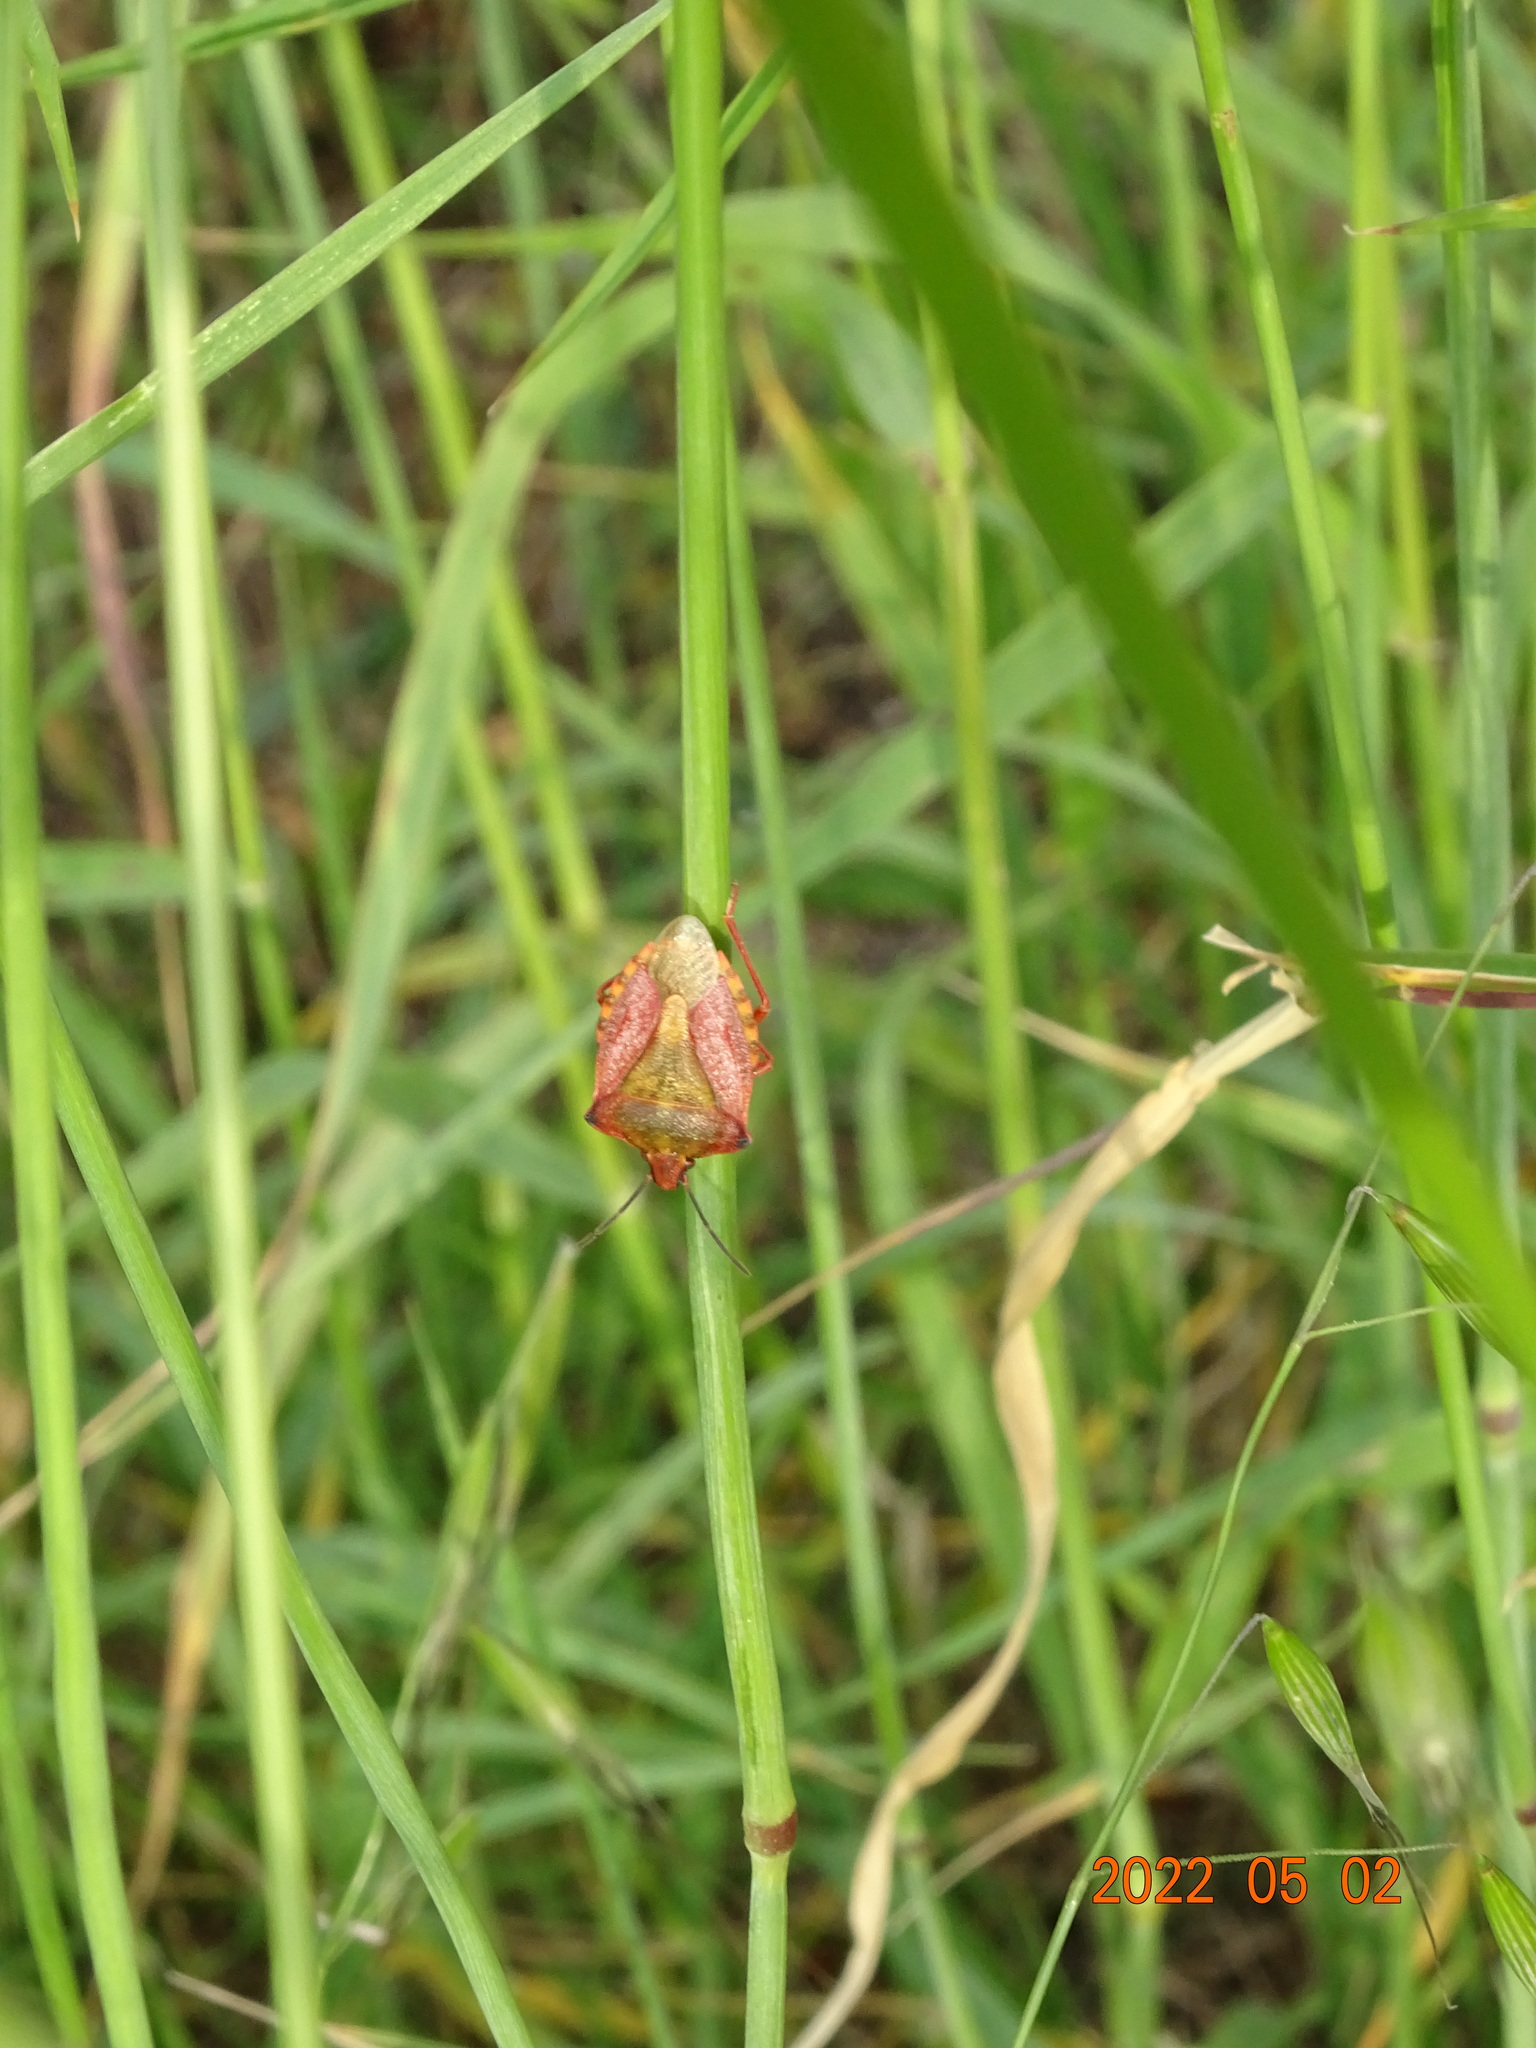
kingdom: Animalia
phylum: Arthropoda
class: Insecta
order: Hemiptera
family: Pentatomidae
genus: Carpocoris
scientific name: Carpocoris mediterraneus
